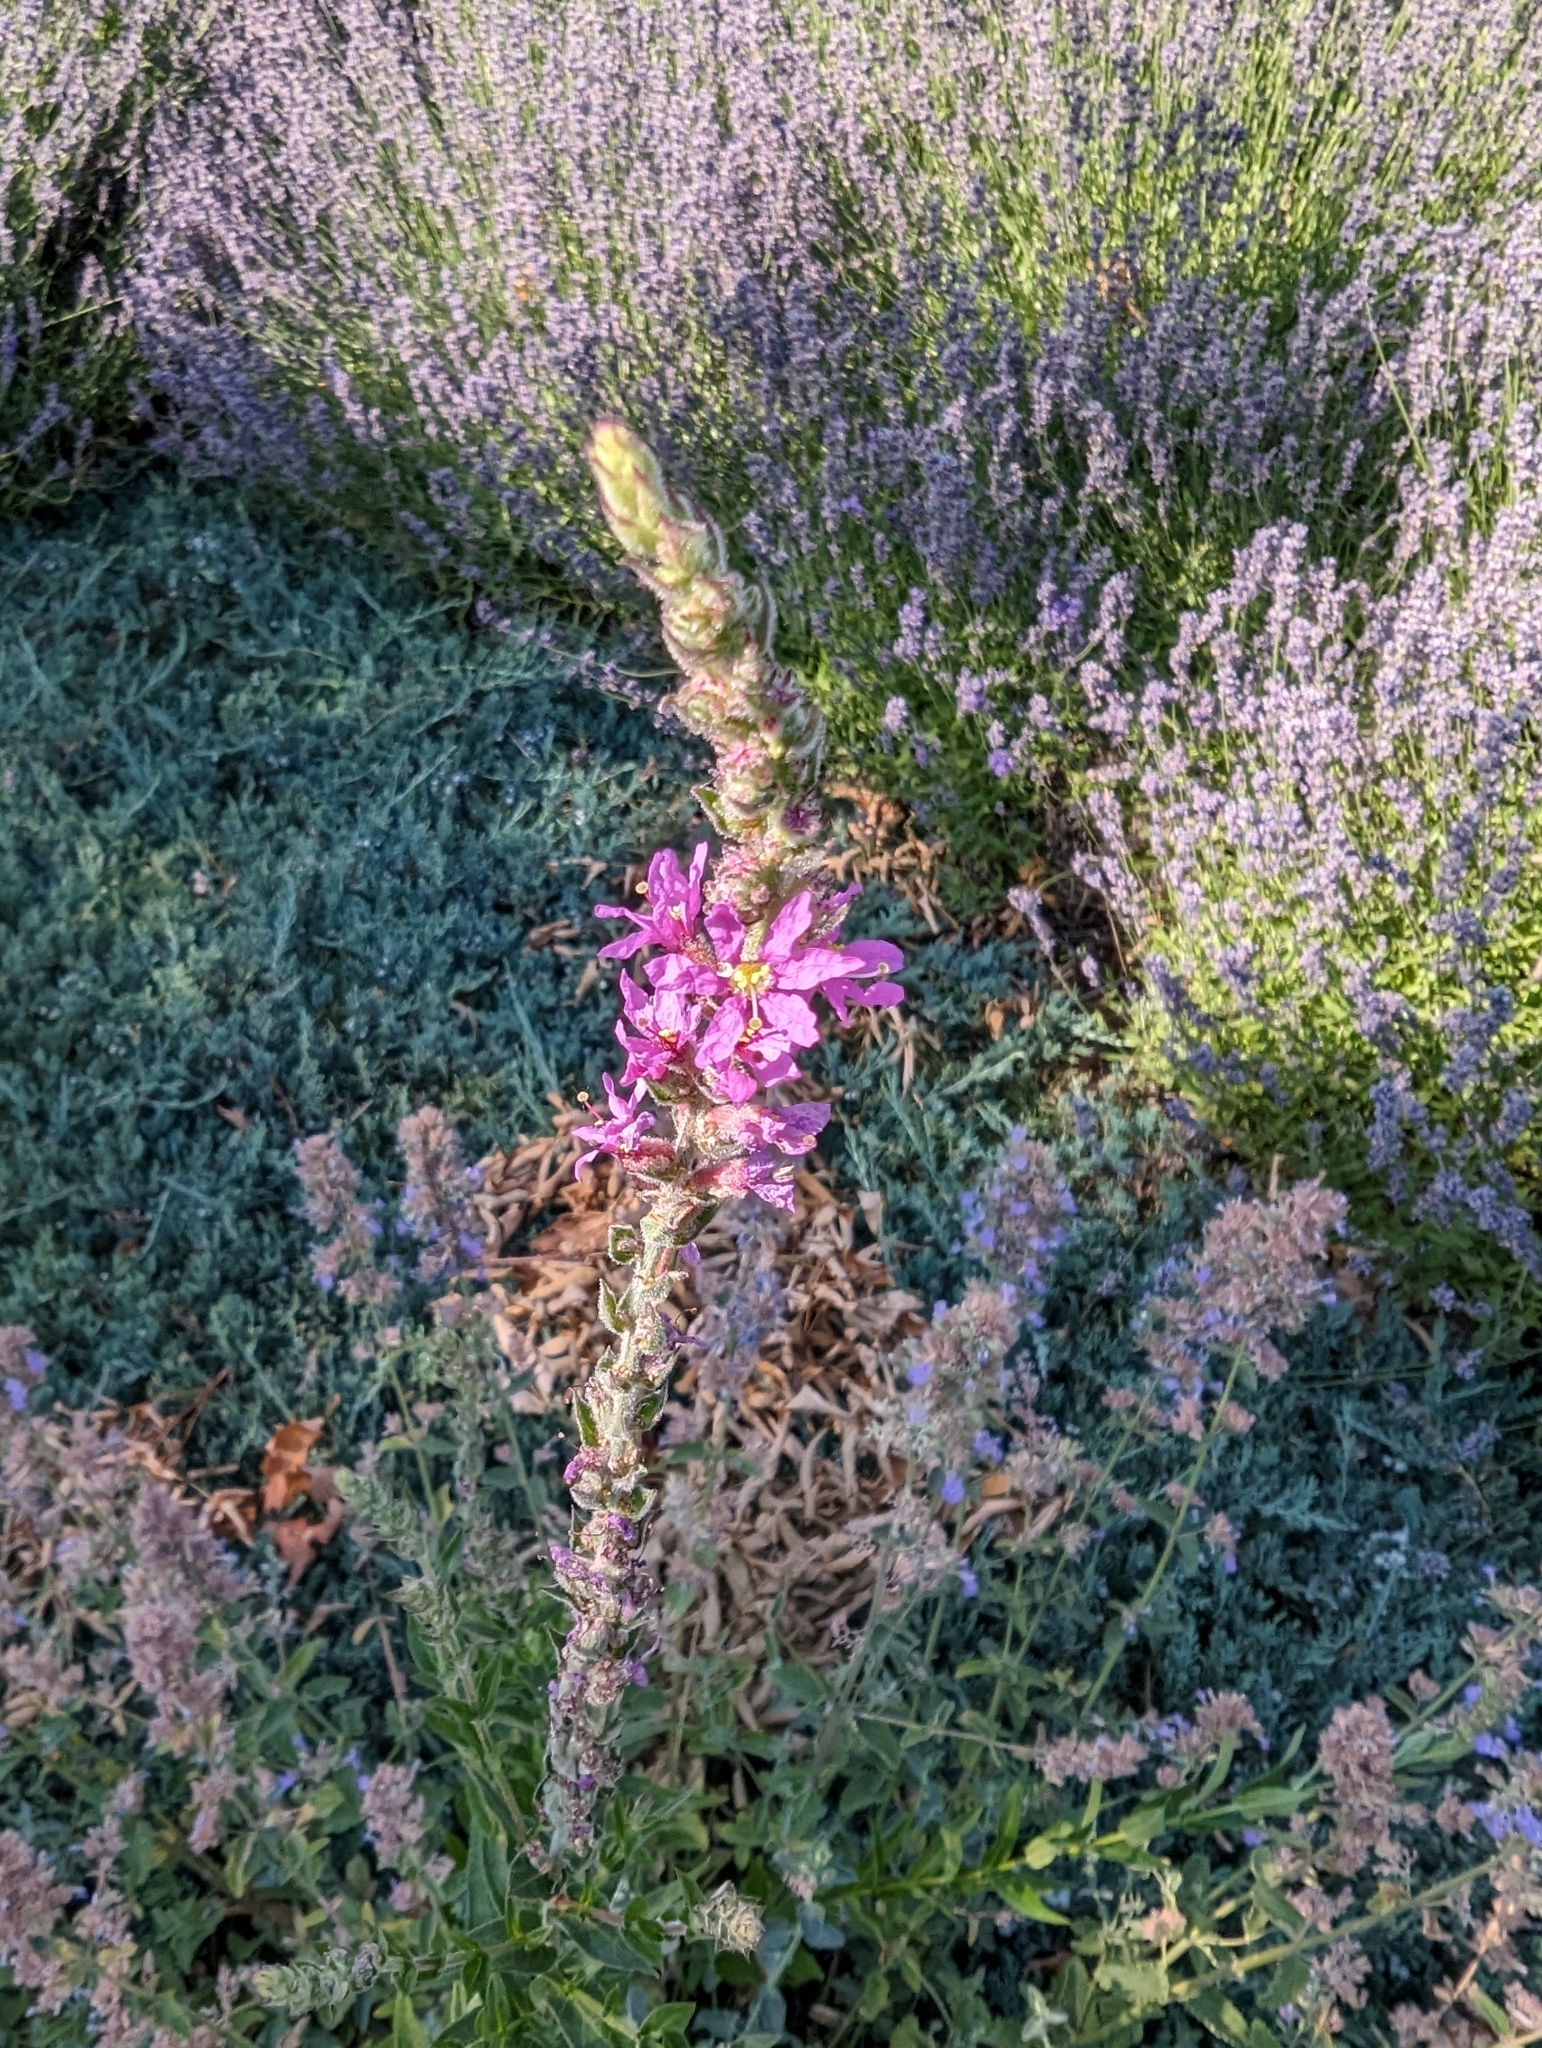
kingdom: Plantae
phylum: Tracheophyta
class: Magnoliopsida
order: Myrtales
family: Lythraceae
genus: Lythrum
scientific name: Lythrum salicaria
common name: Purple loosestrife
